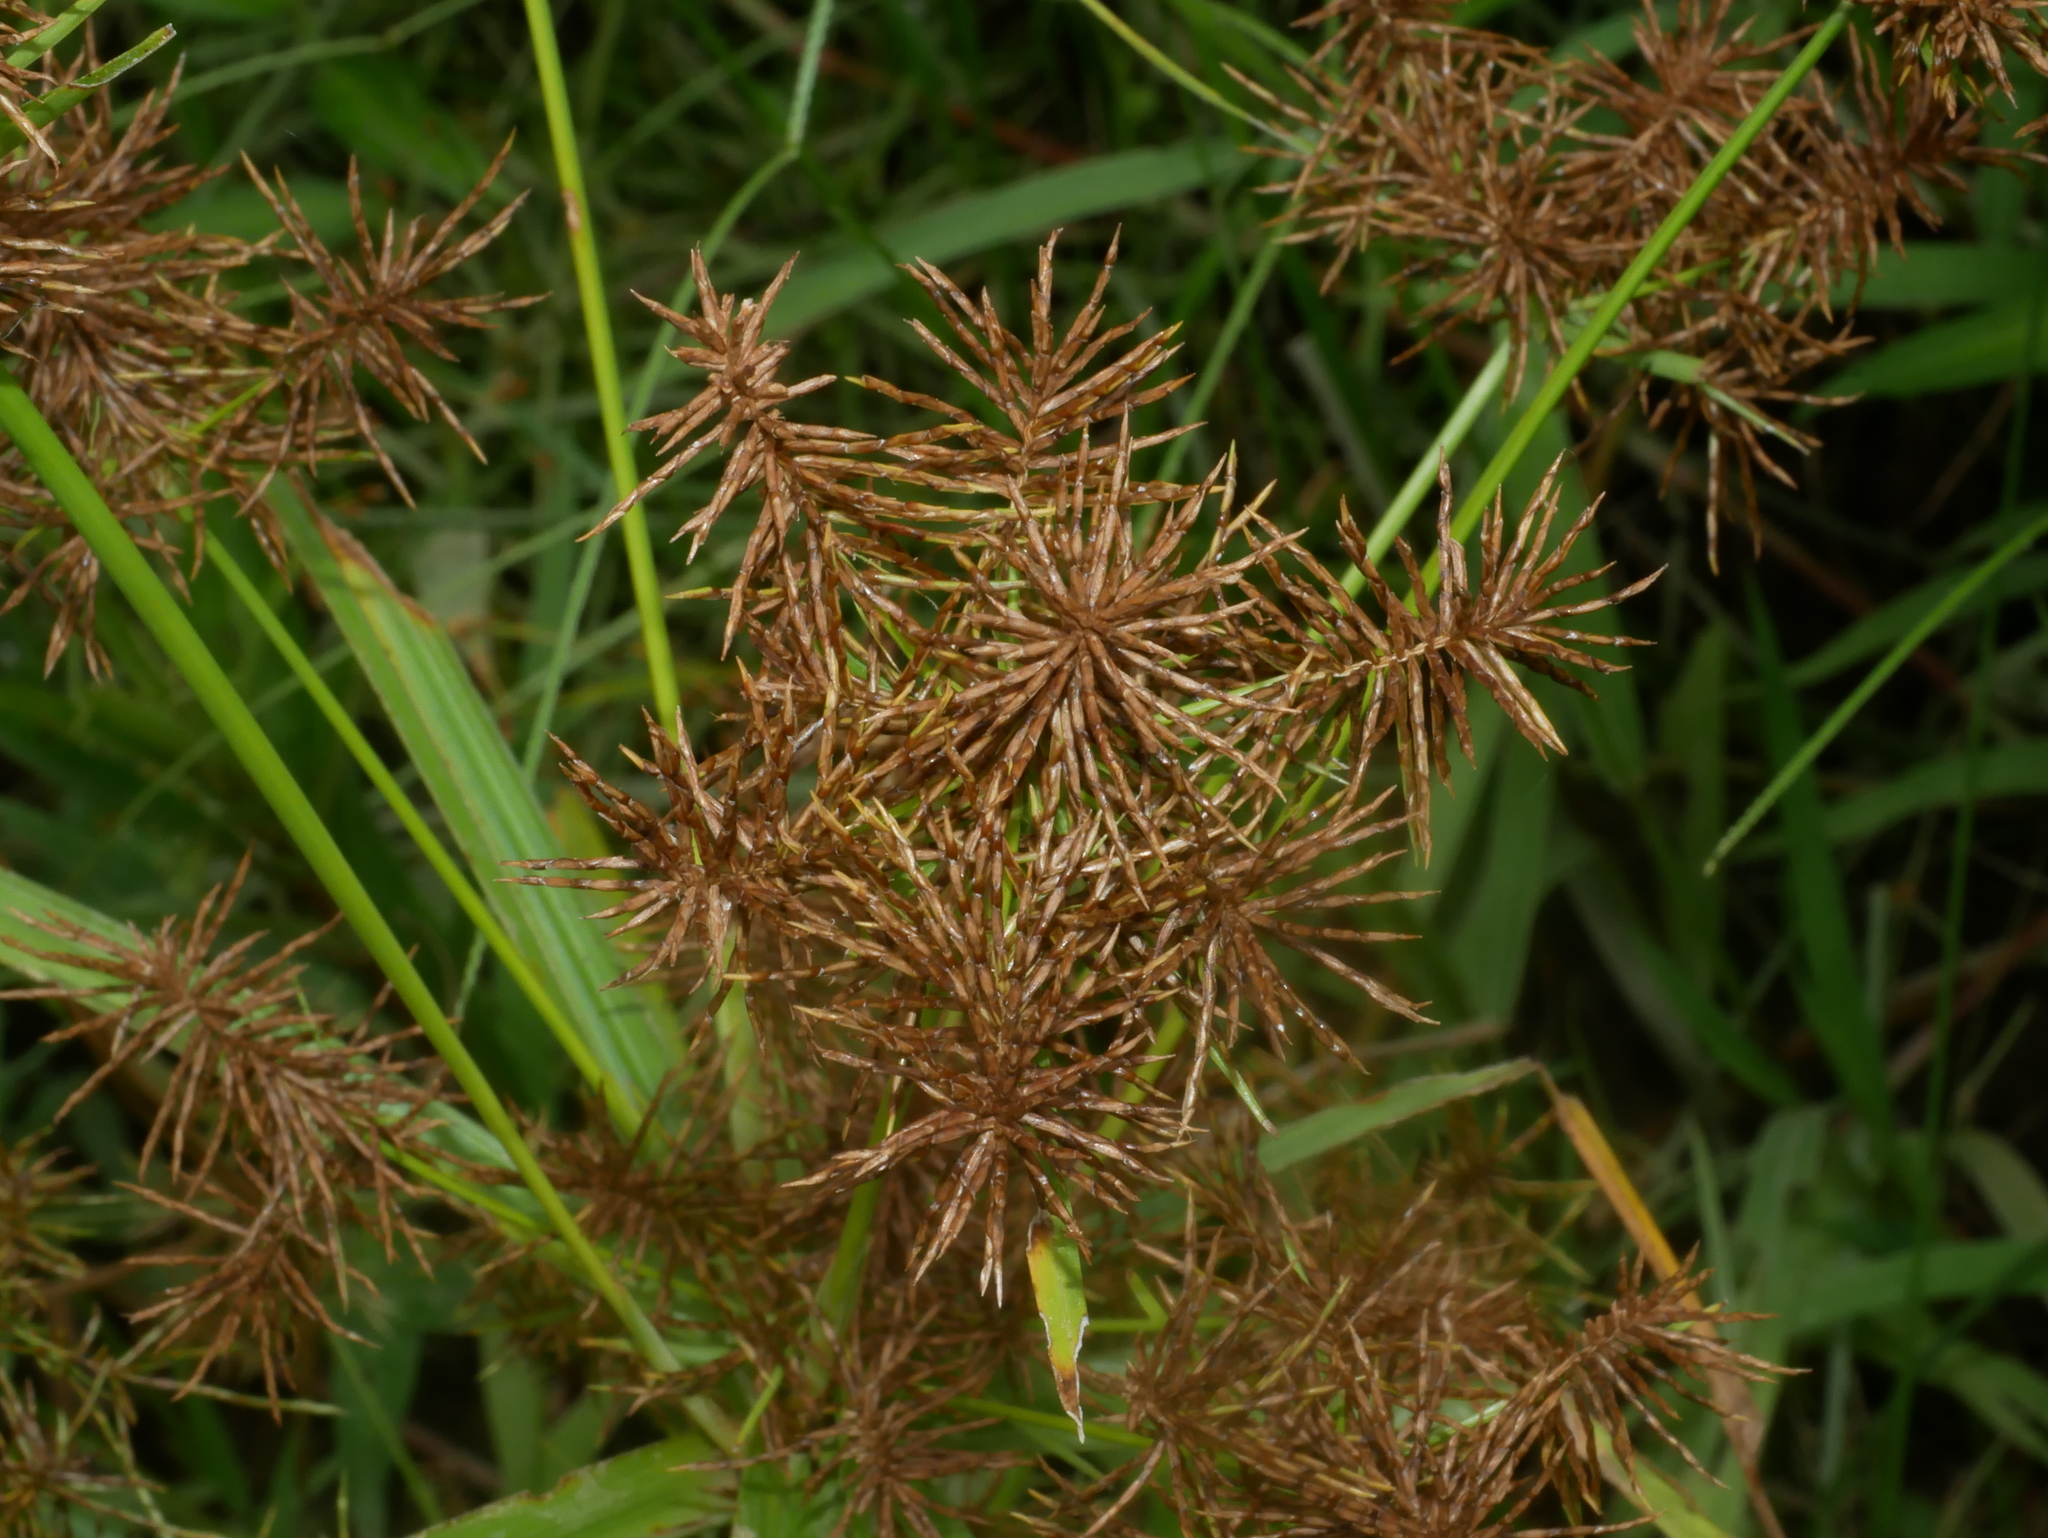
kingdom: Plantae
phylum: Tracheophyta
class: Liliopsida
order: Poales
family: Cyperaceae
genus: Cyperus
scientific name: Cyperus odoratus
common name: Fragrant flatsedge
